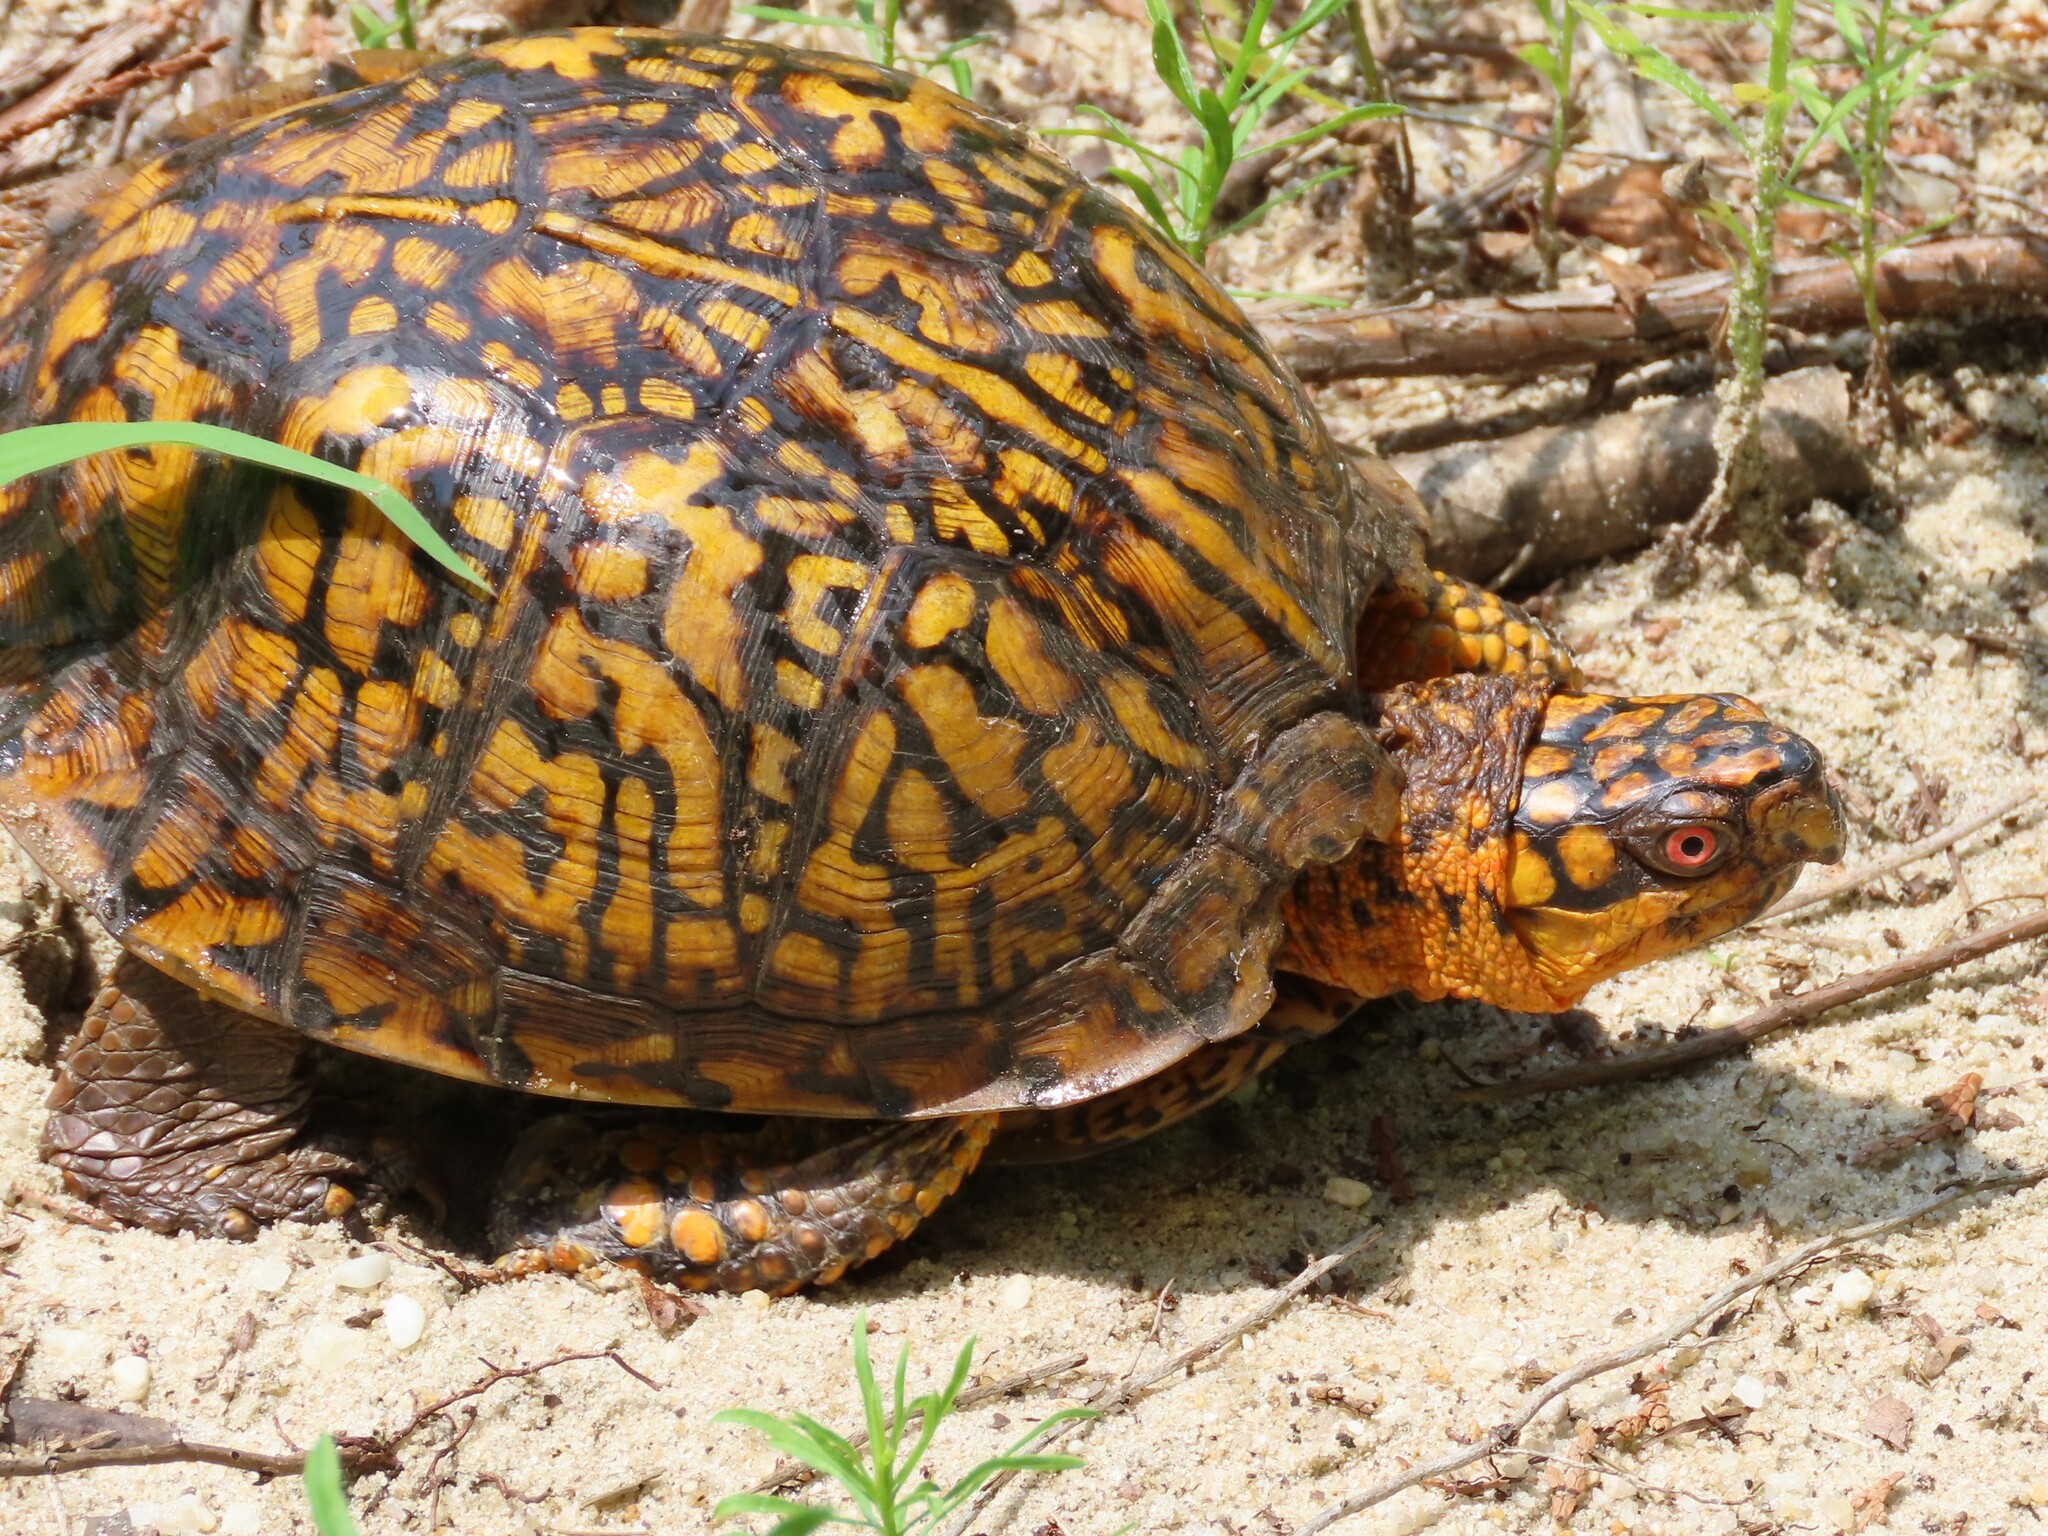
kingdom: Animalia
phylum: Chordata
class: Testudines
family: Emydidae
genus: Terrapene
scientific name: Terrapene carolina
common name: Common box turtle
